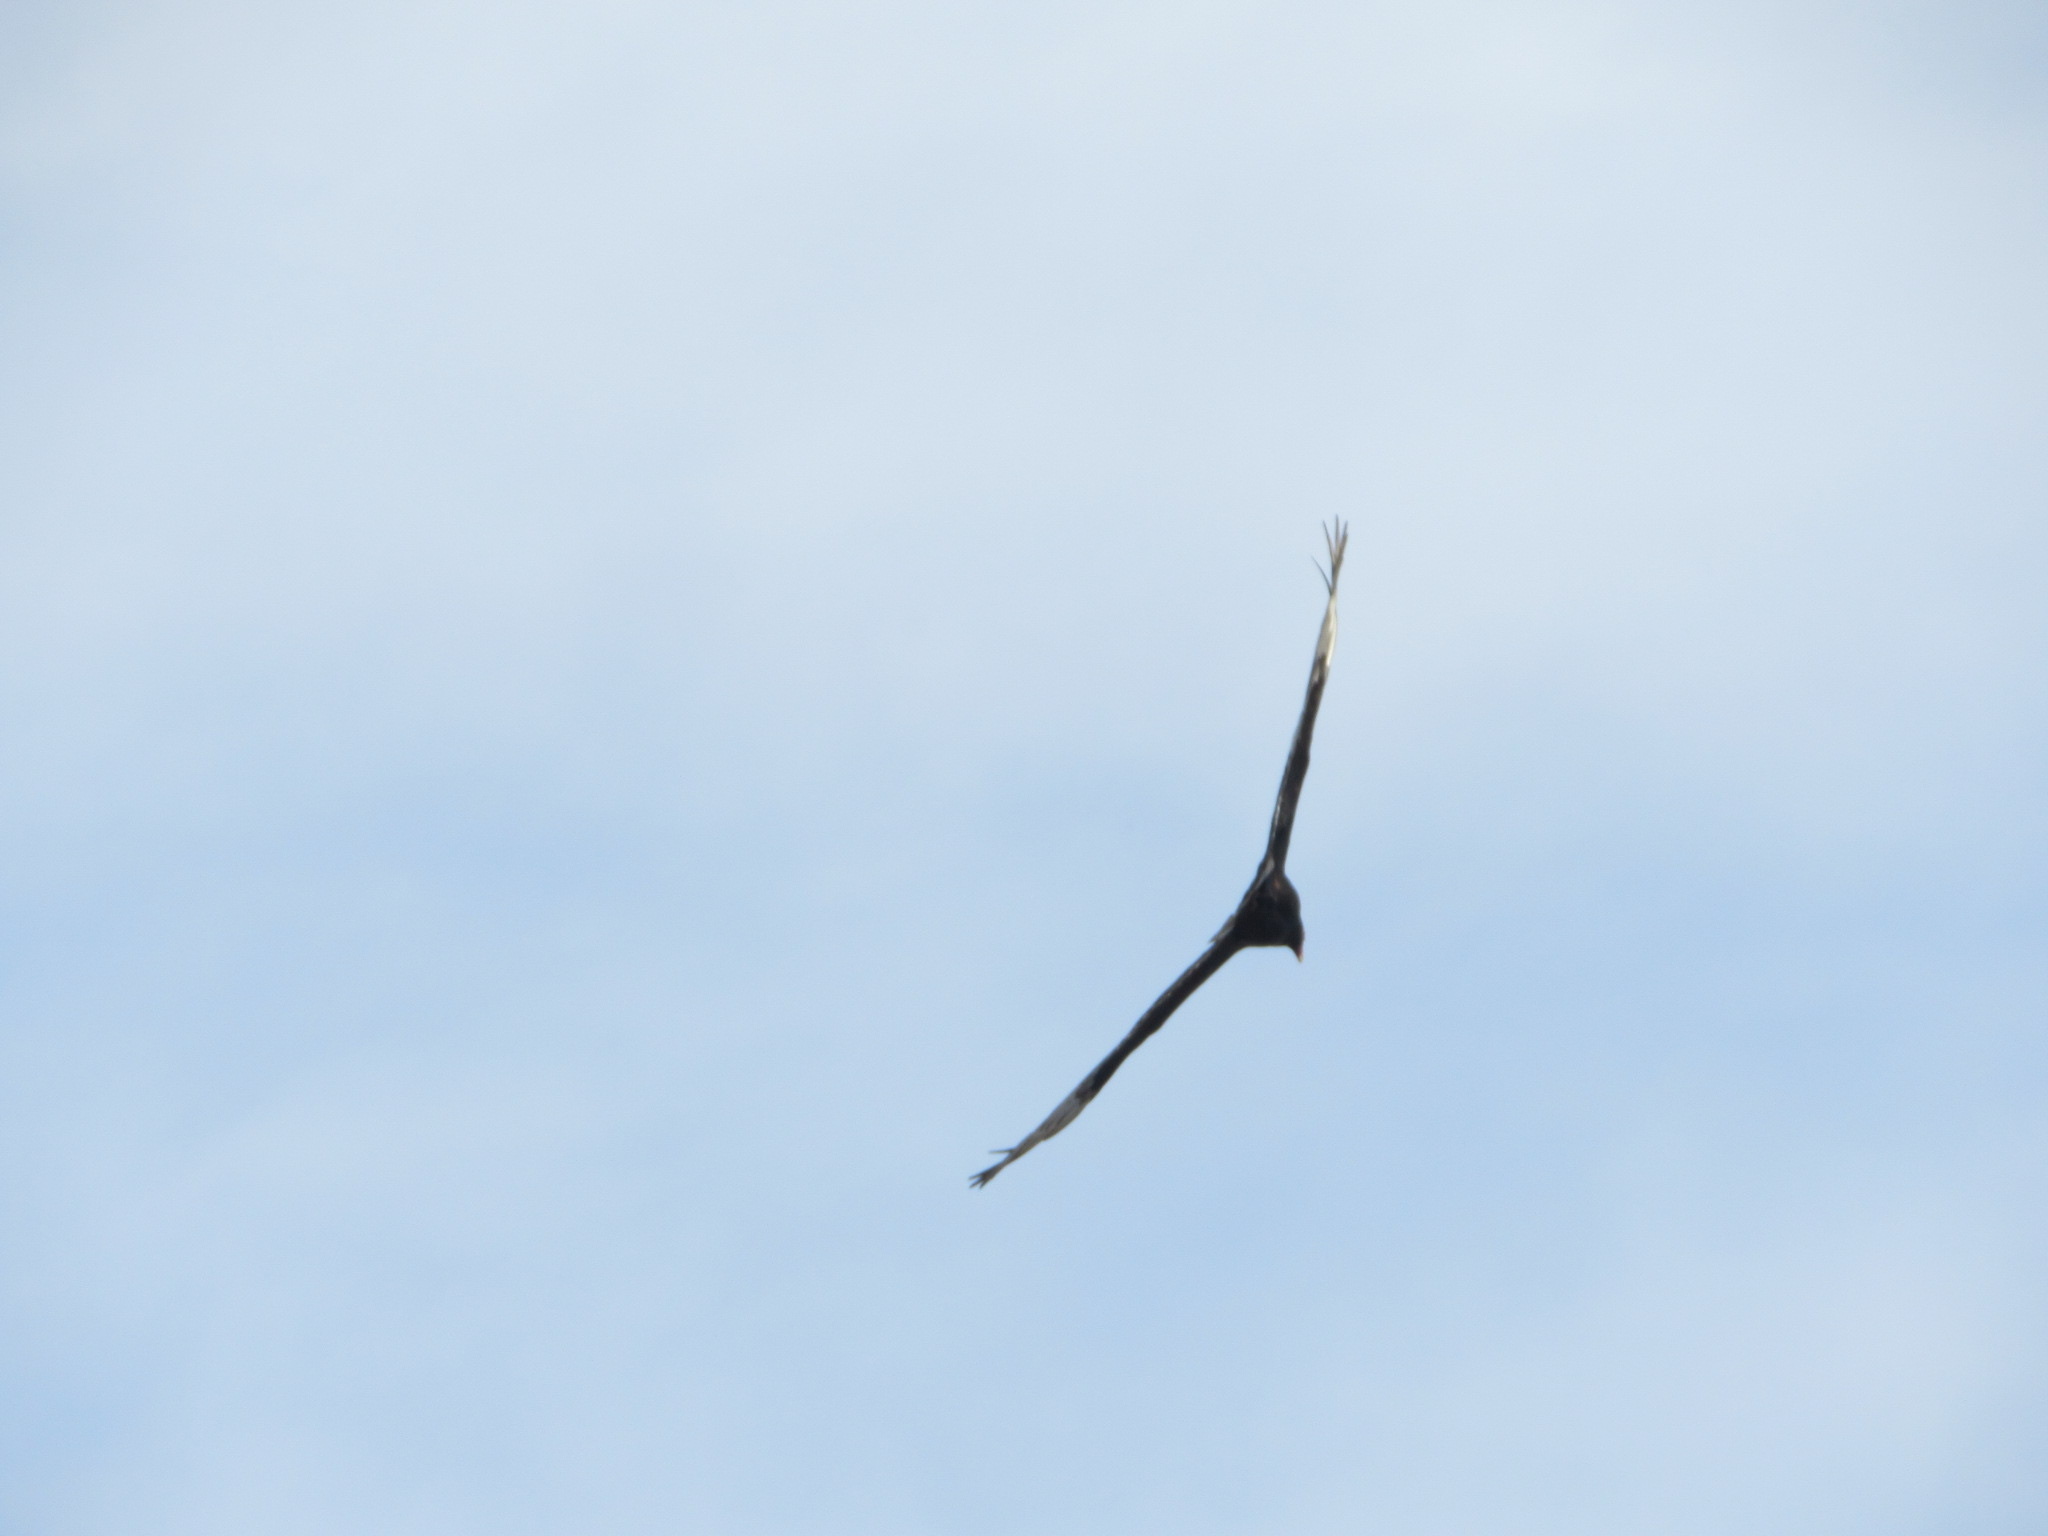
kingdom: Animalia
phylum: Chordata
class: Aves
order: Accipitriformes
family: Cathartidae
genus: Cathartes
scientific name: Cathartes aura
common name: Turkey vulture
